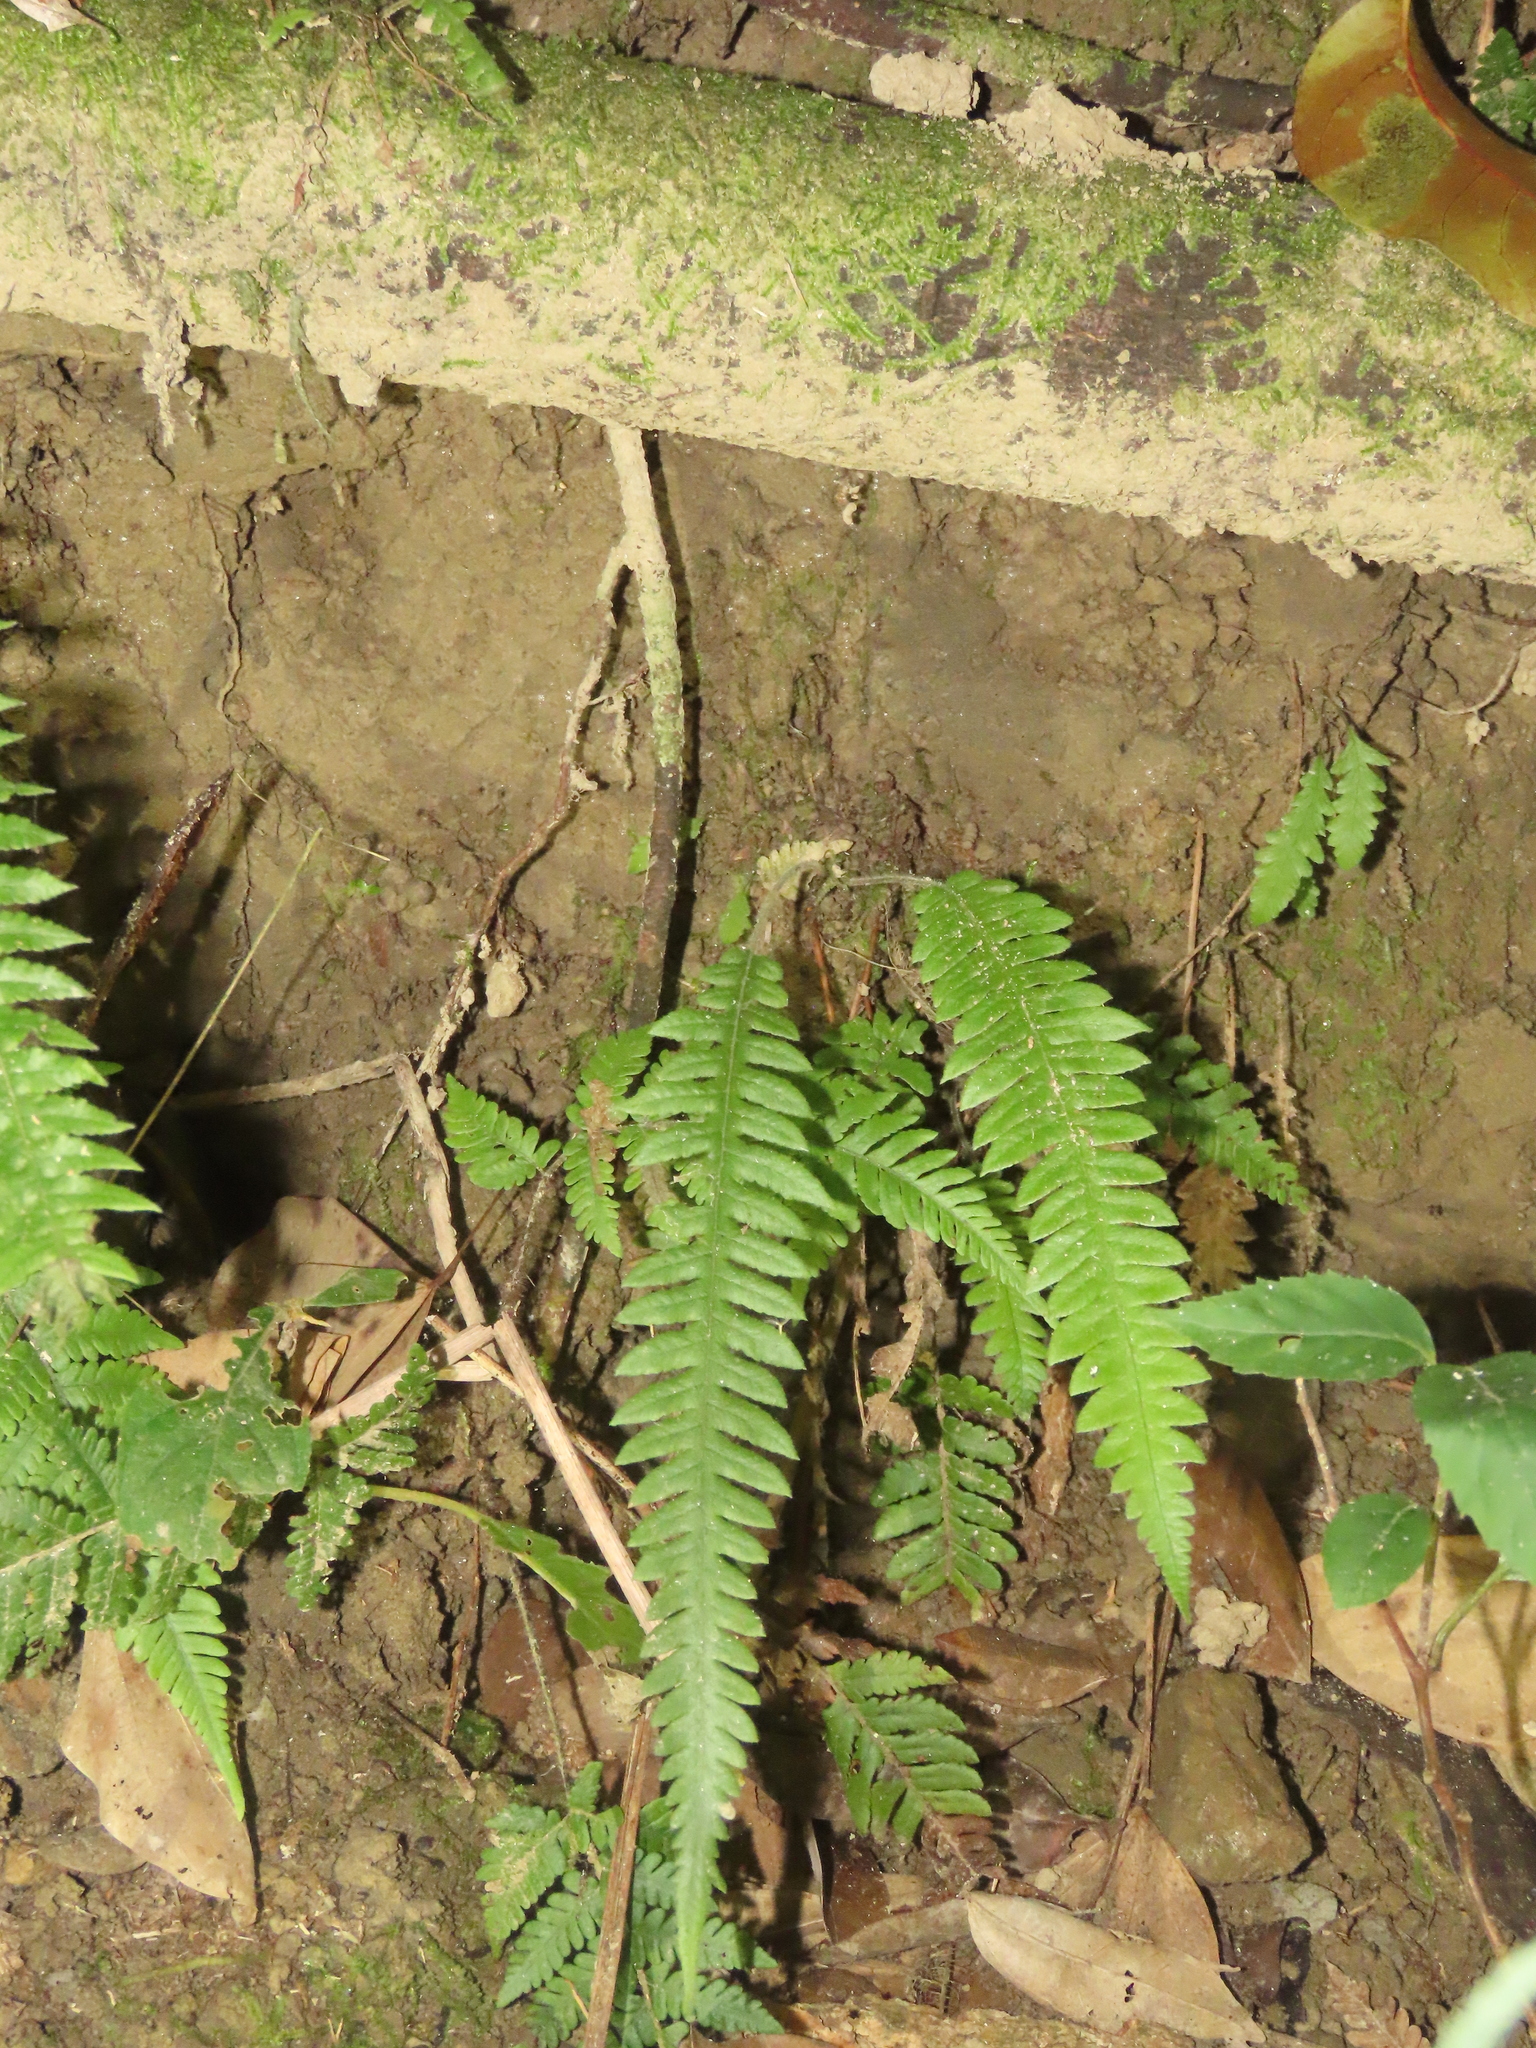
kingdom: Plantae
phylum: Tracheophyta
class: Polypodiopsida
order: Polypodiales
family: Thelypteridaceae
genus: Phegopteris
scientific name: Phegopteris decursive-pinnata
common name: Japanese beech fern
